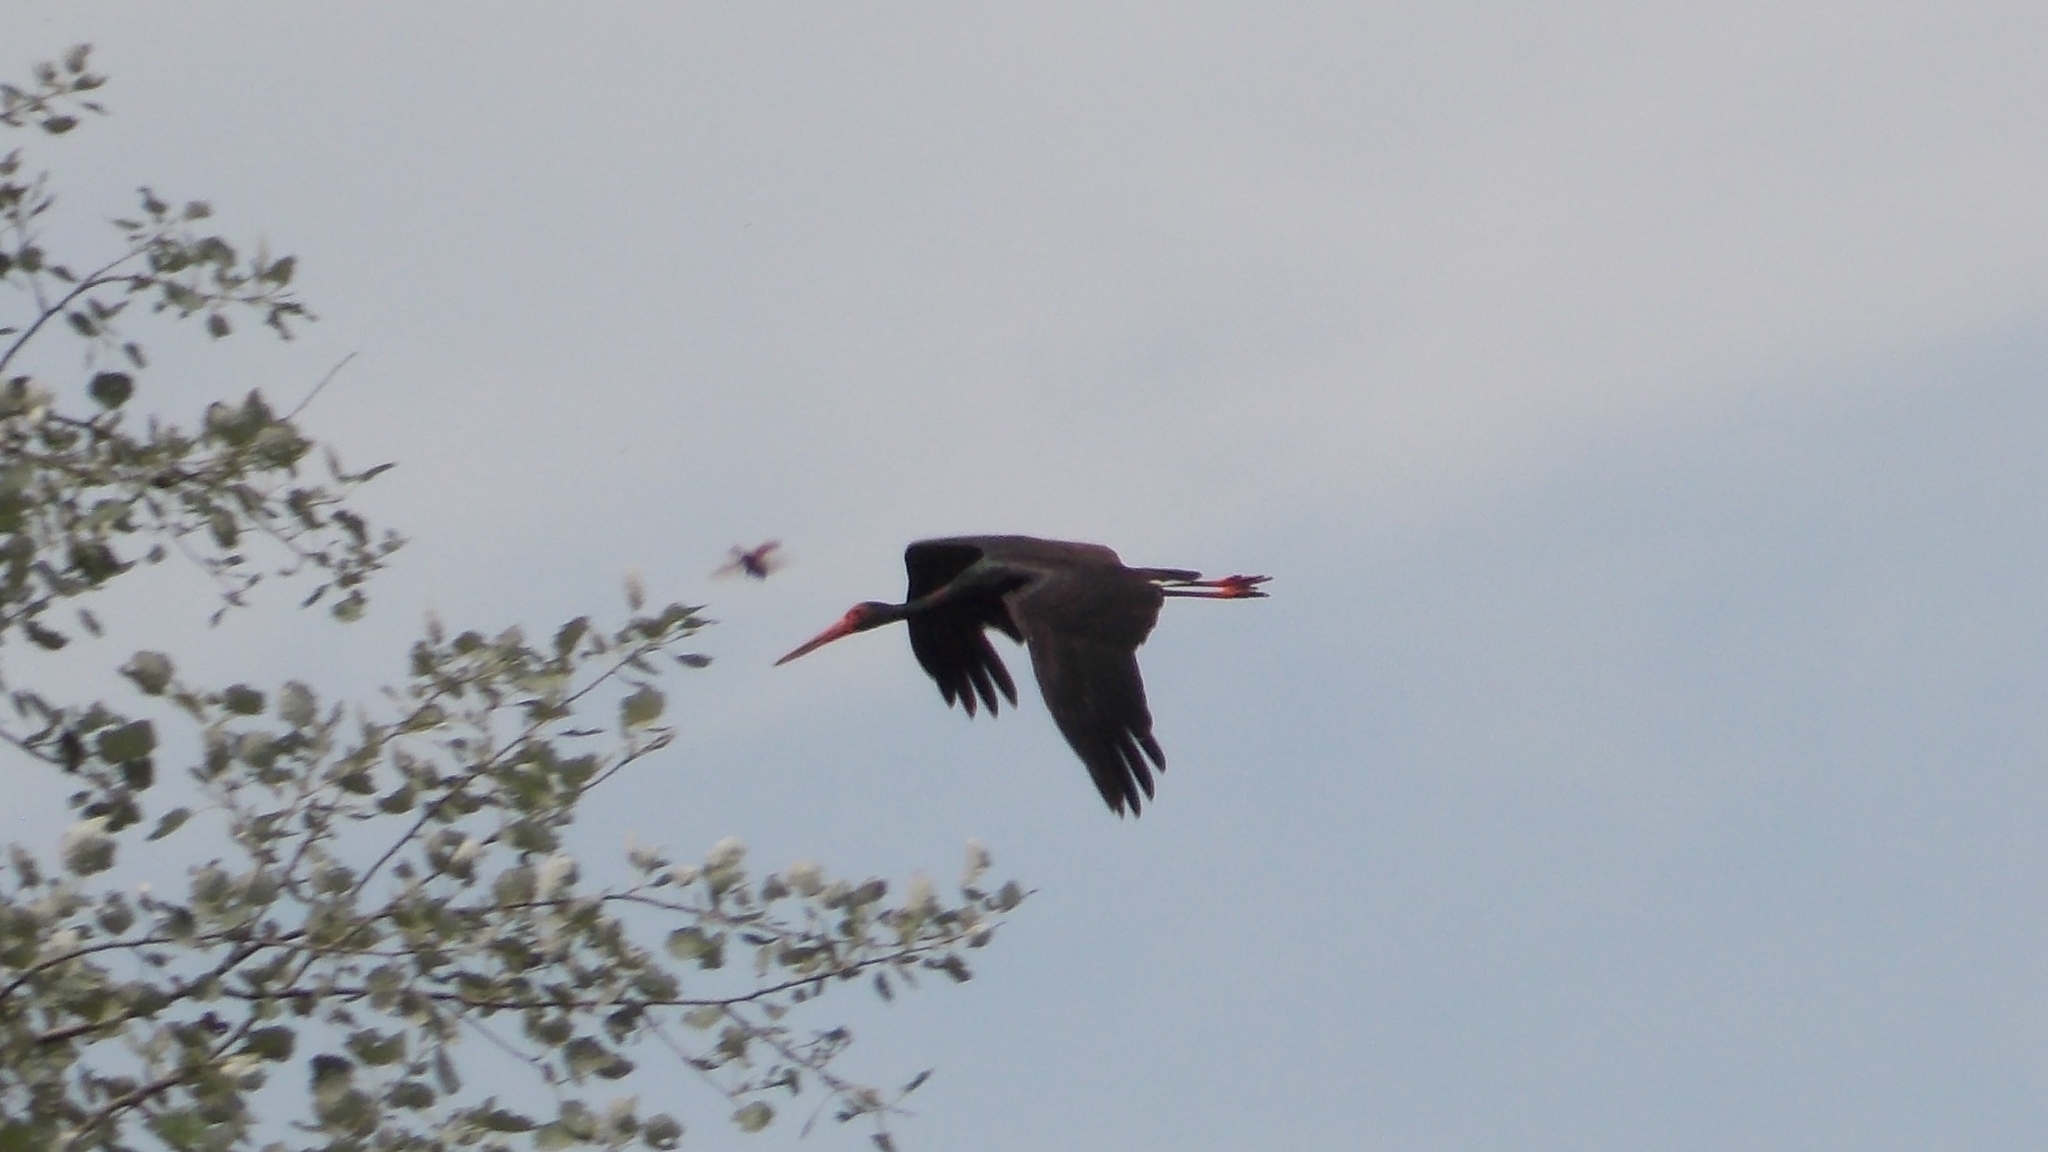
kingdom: Animalia
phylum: Chordata
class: Aves
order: Ciconiiformes
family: Ciconiidae
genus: Ciconia
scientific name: Ciconia nigra
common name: Black stork
